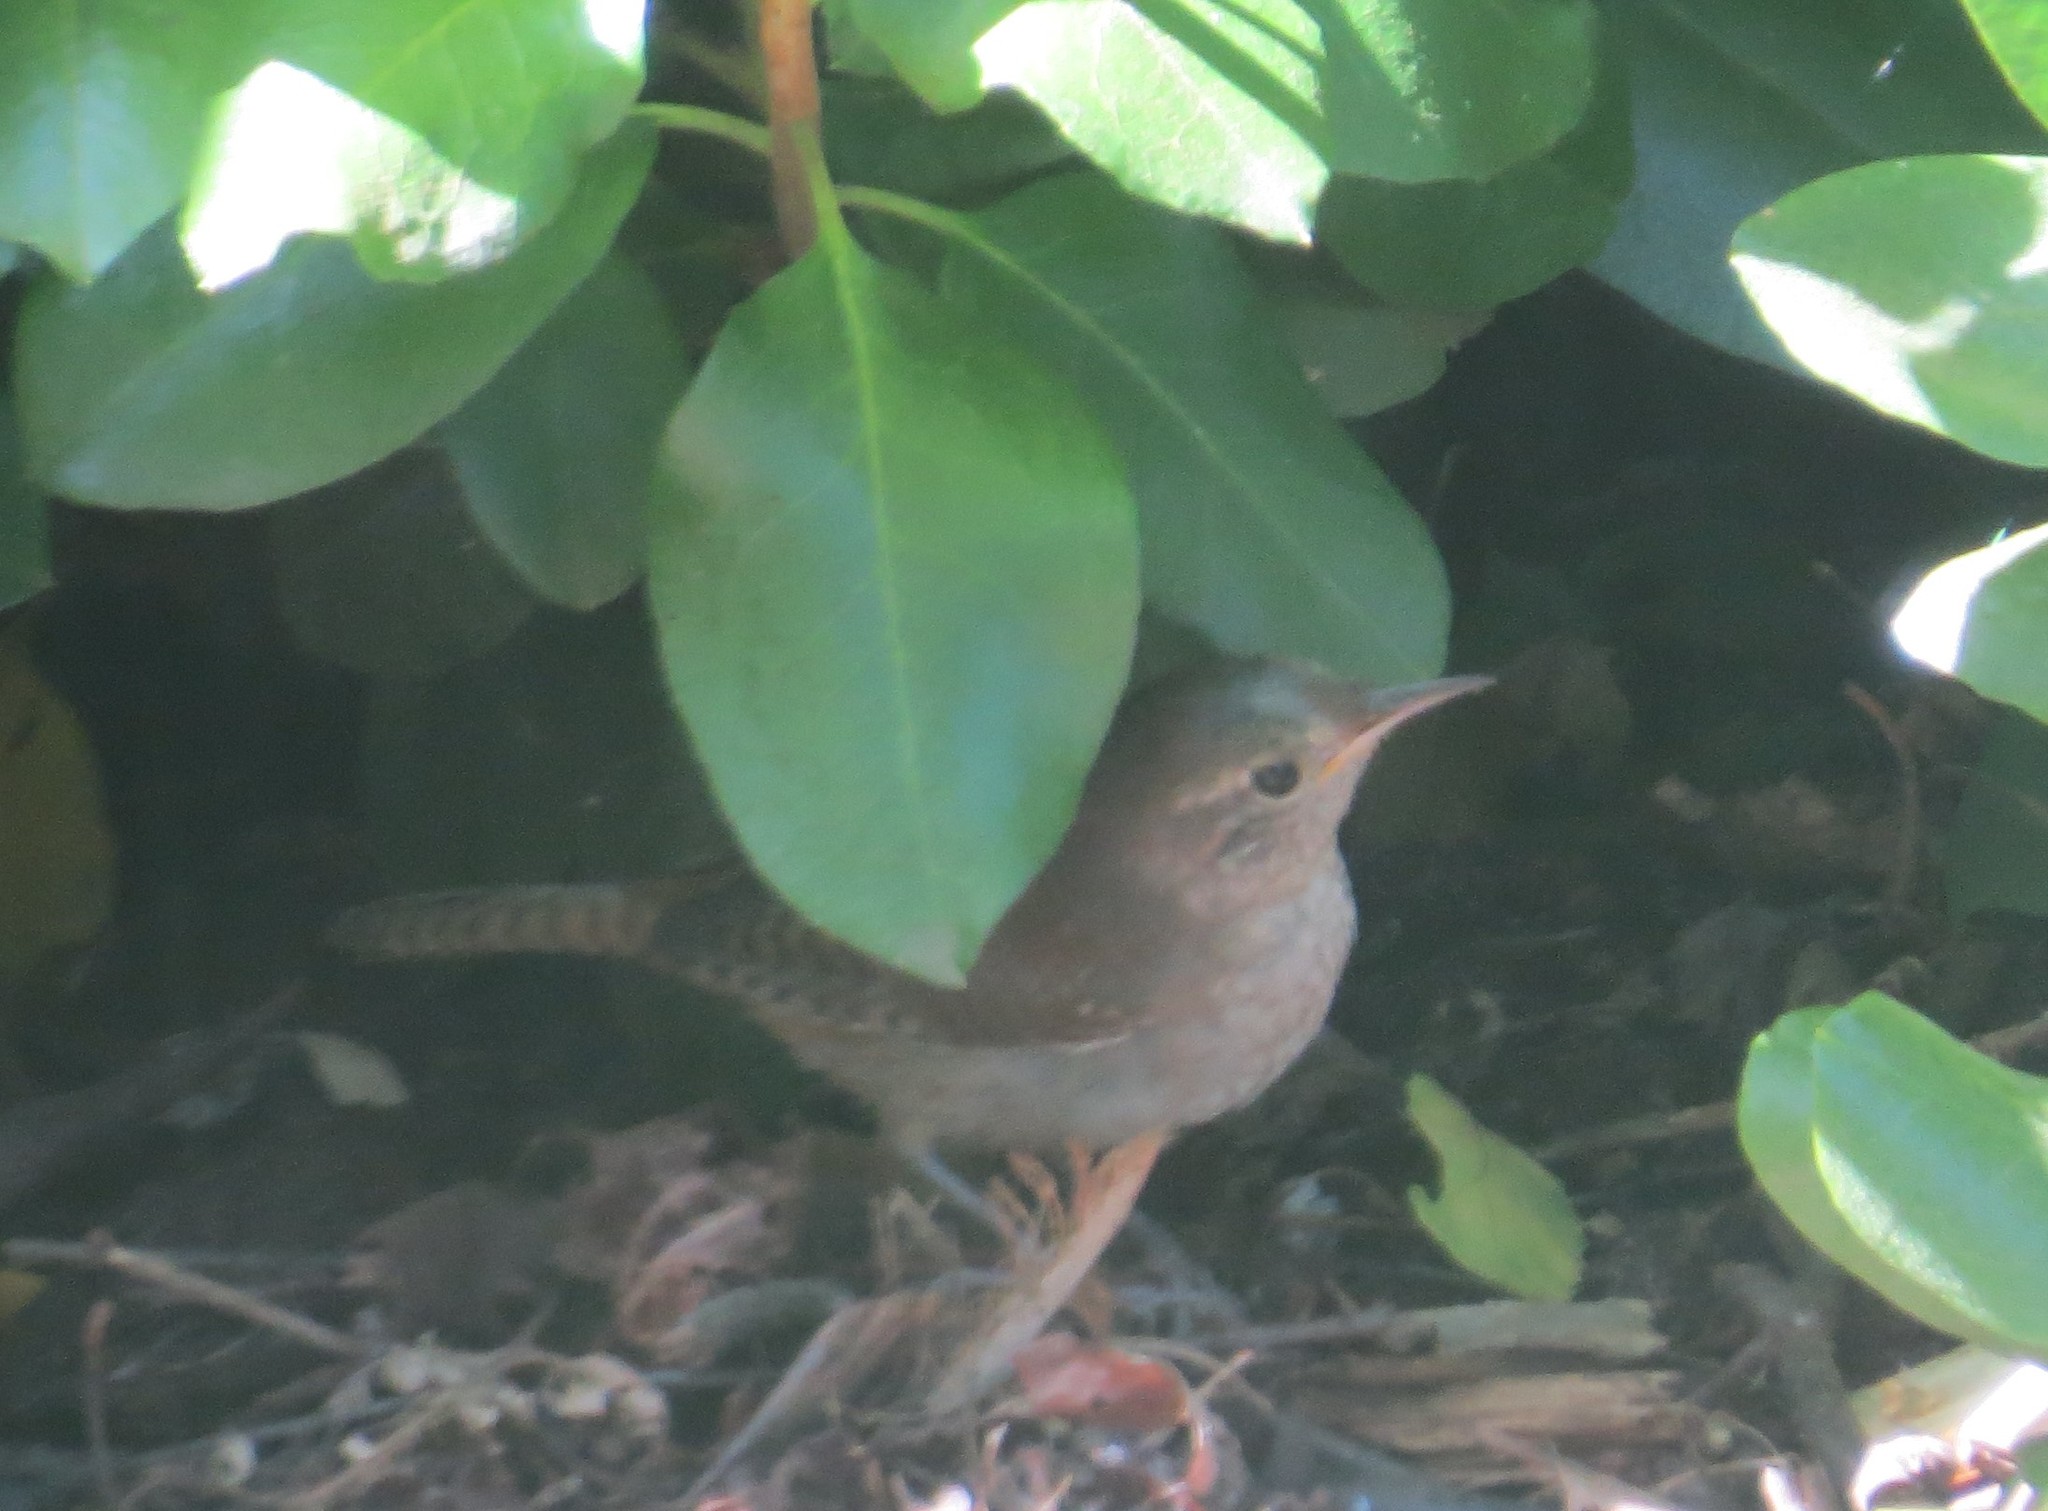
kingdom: Animalia
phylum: Chordata
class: Aves
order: Passeriformes
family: Troglodytidae
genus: Troglodytes
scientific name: Troglodytes aedon
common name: House wren
